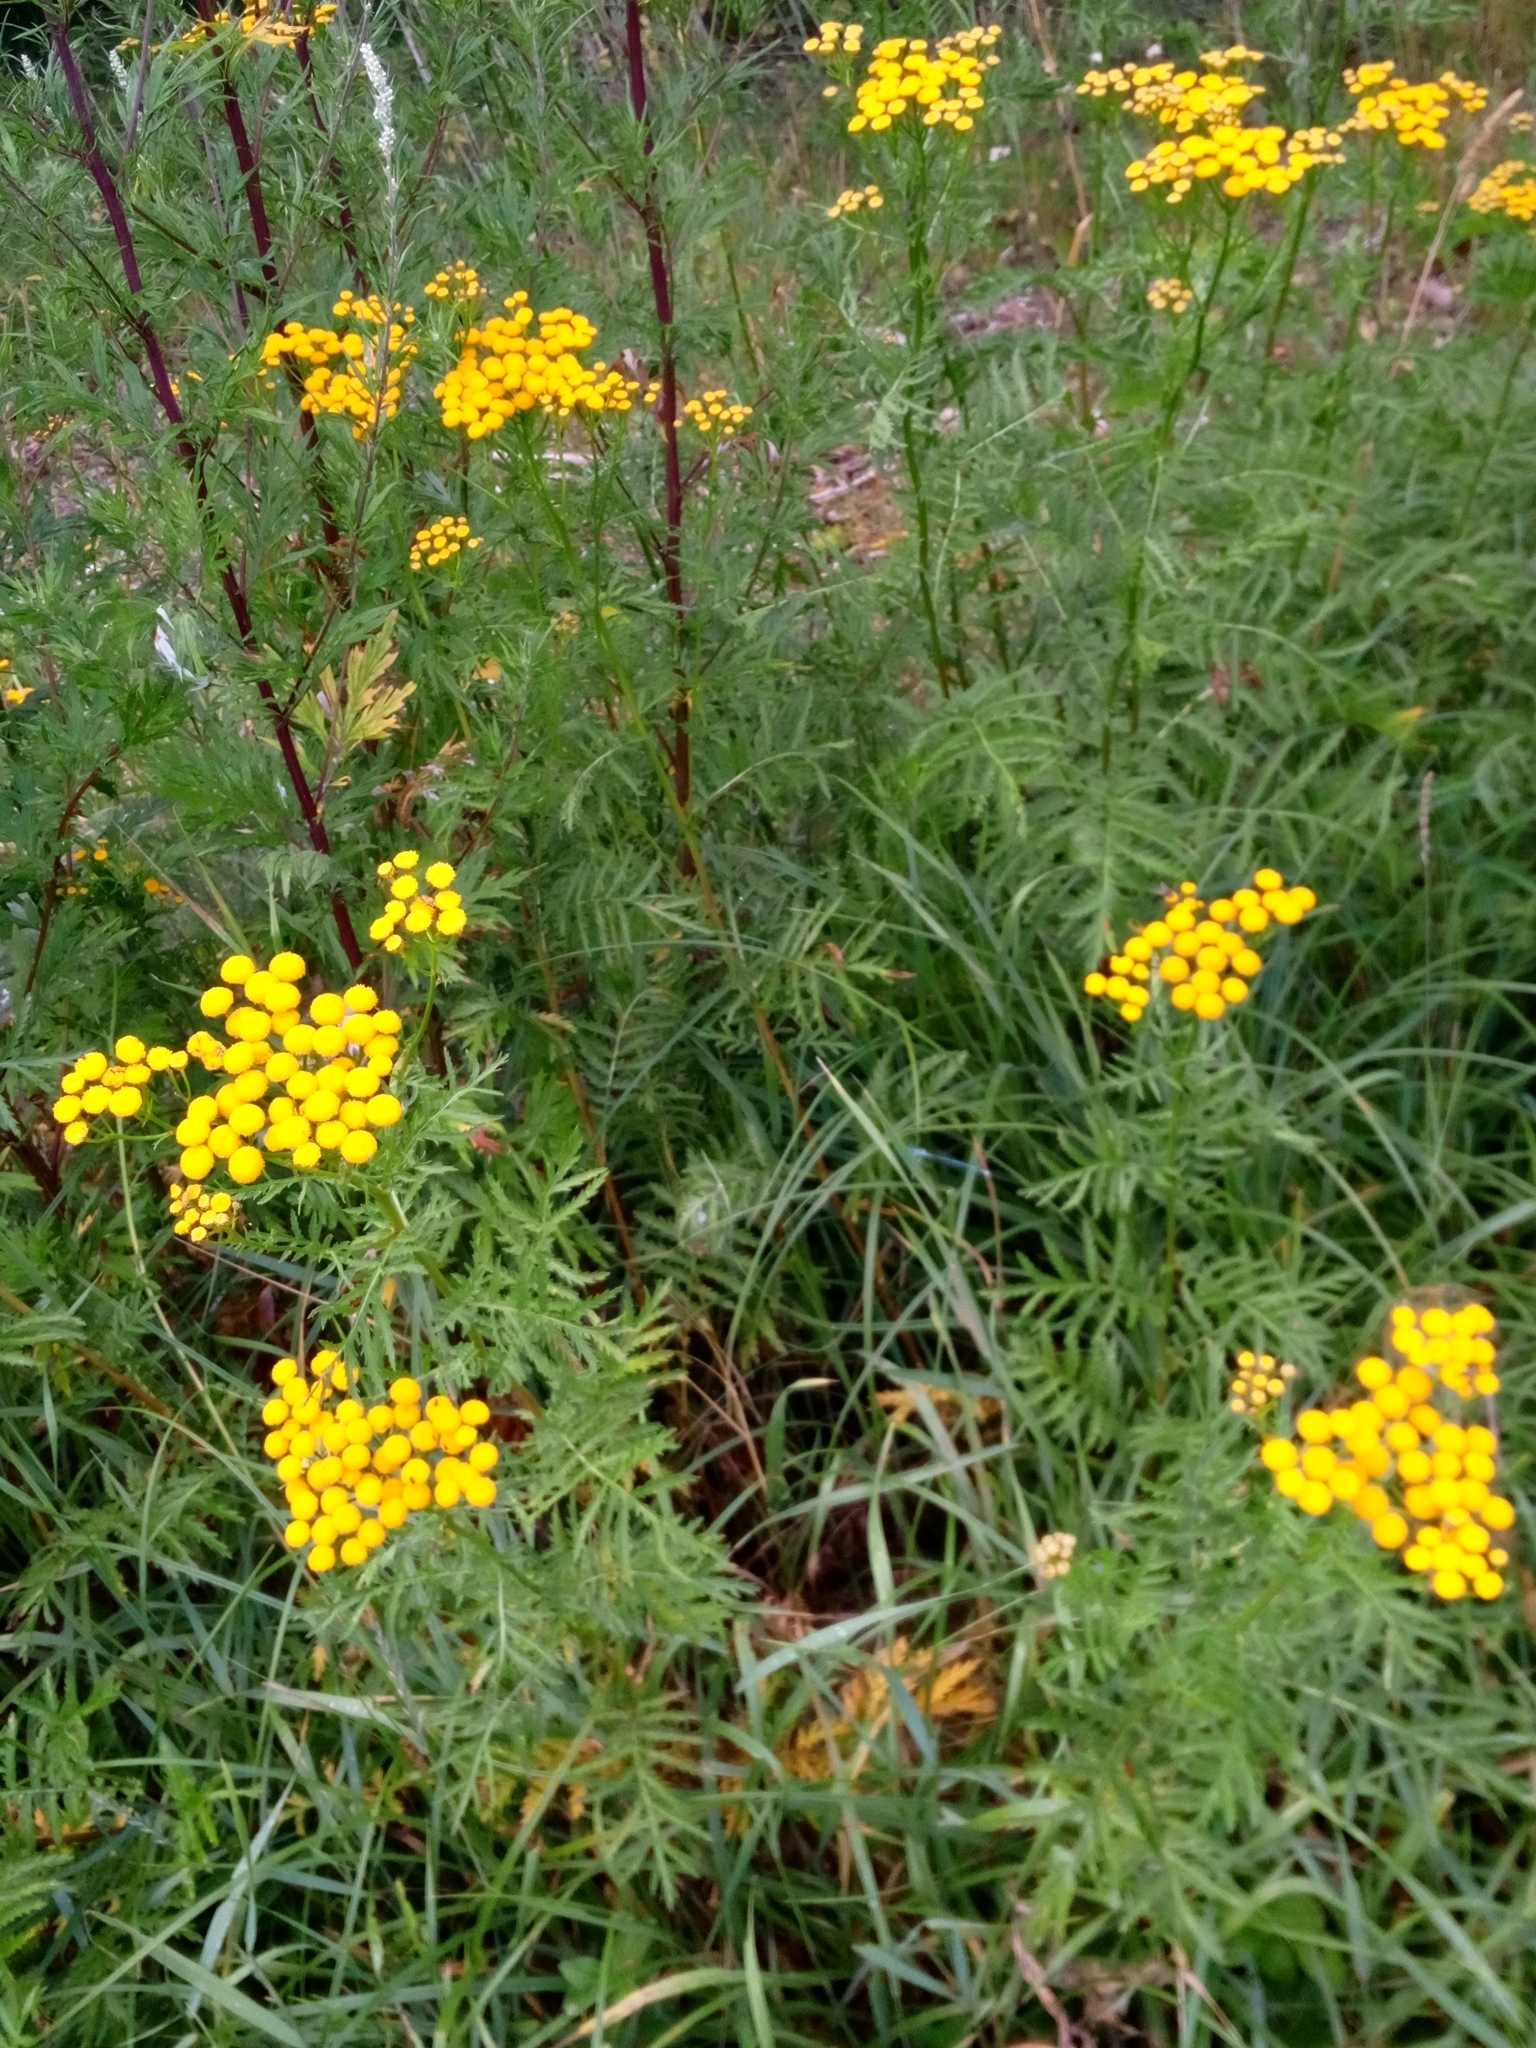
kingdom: Plantae
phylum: Tracheophyta
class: Magnoliopsida
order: Asterales
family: Asteraceae
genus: Tanacetum
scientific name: Tanacetum vulgare
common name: Common tansy
